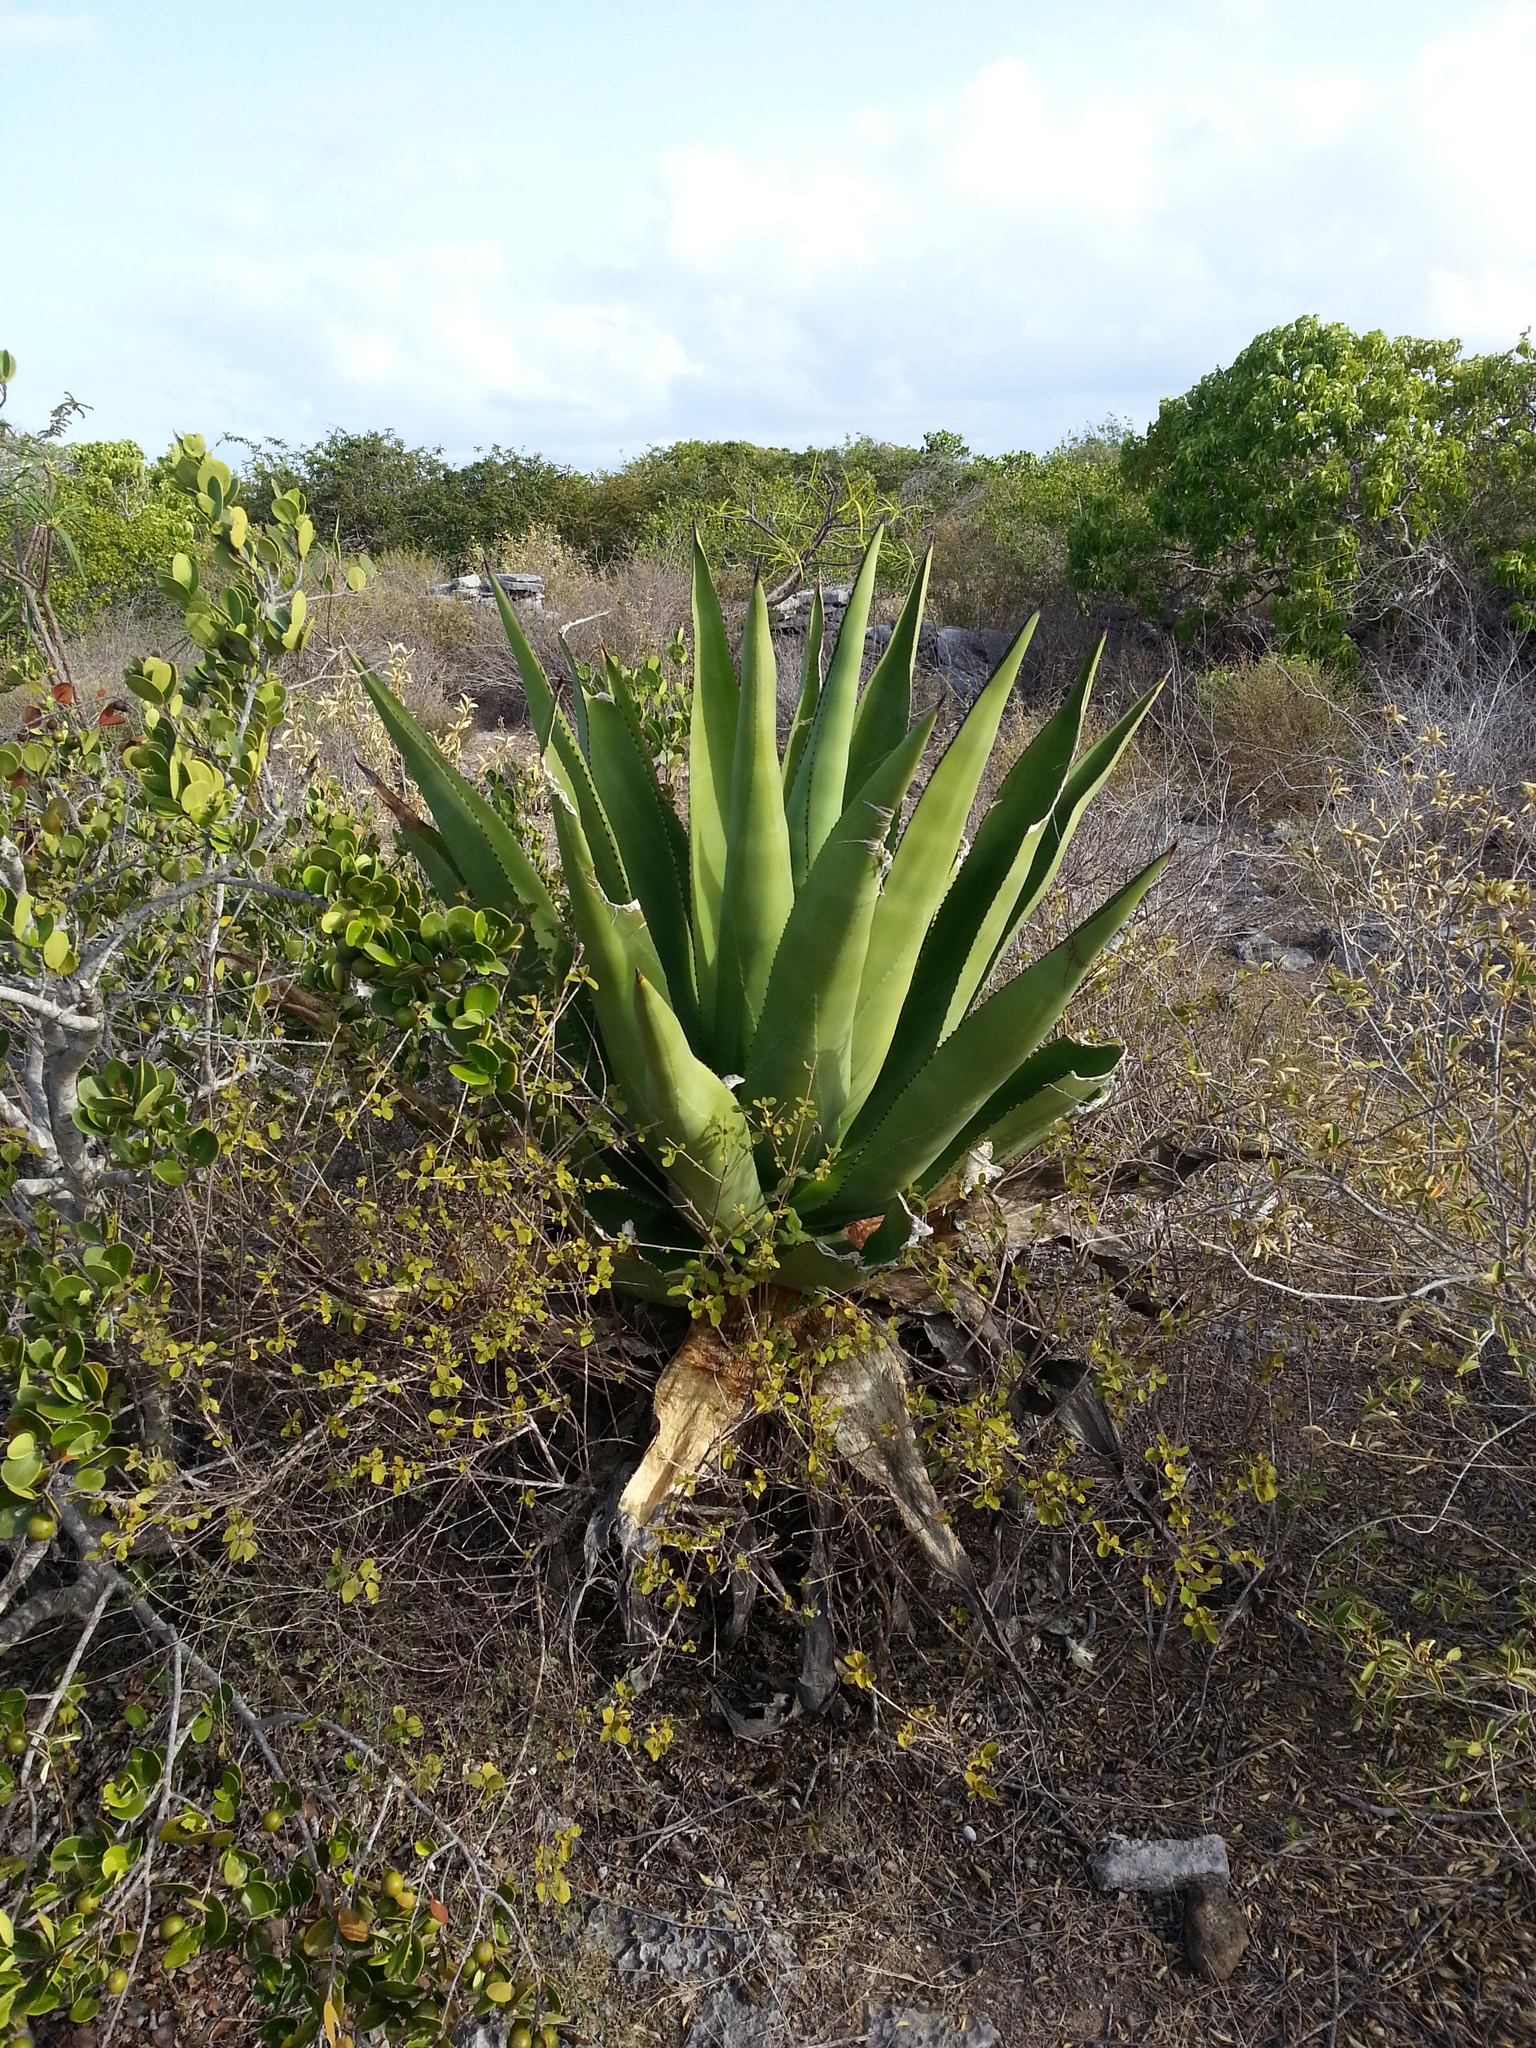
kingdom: Plantae
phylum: Tracheophyta
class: Liliopsida
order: Asparagales
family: Asparagaceae
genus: Agave
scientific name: Agave missionum
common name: Century plant
